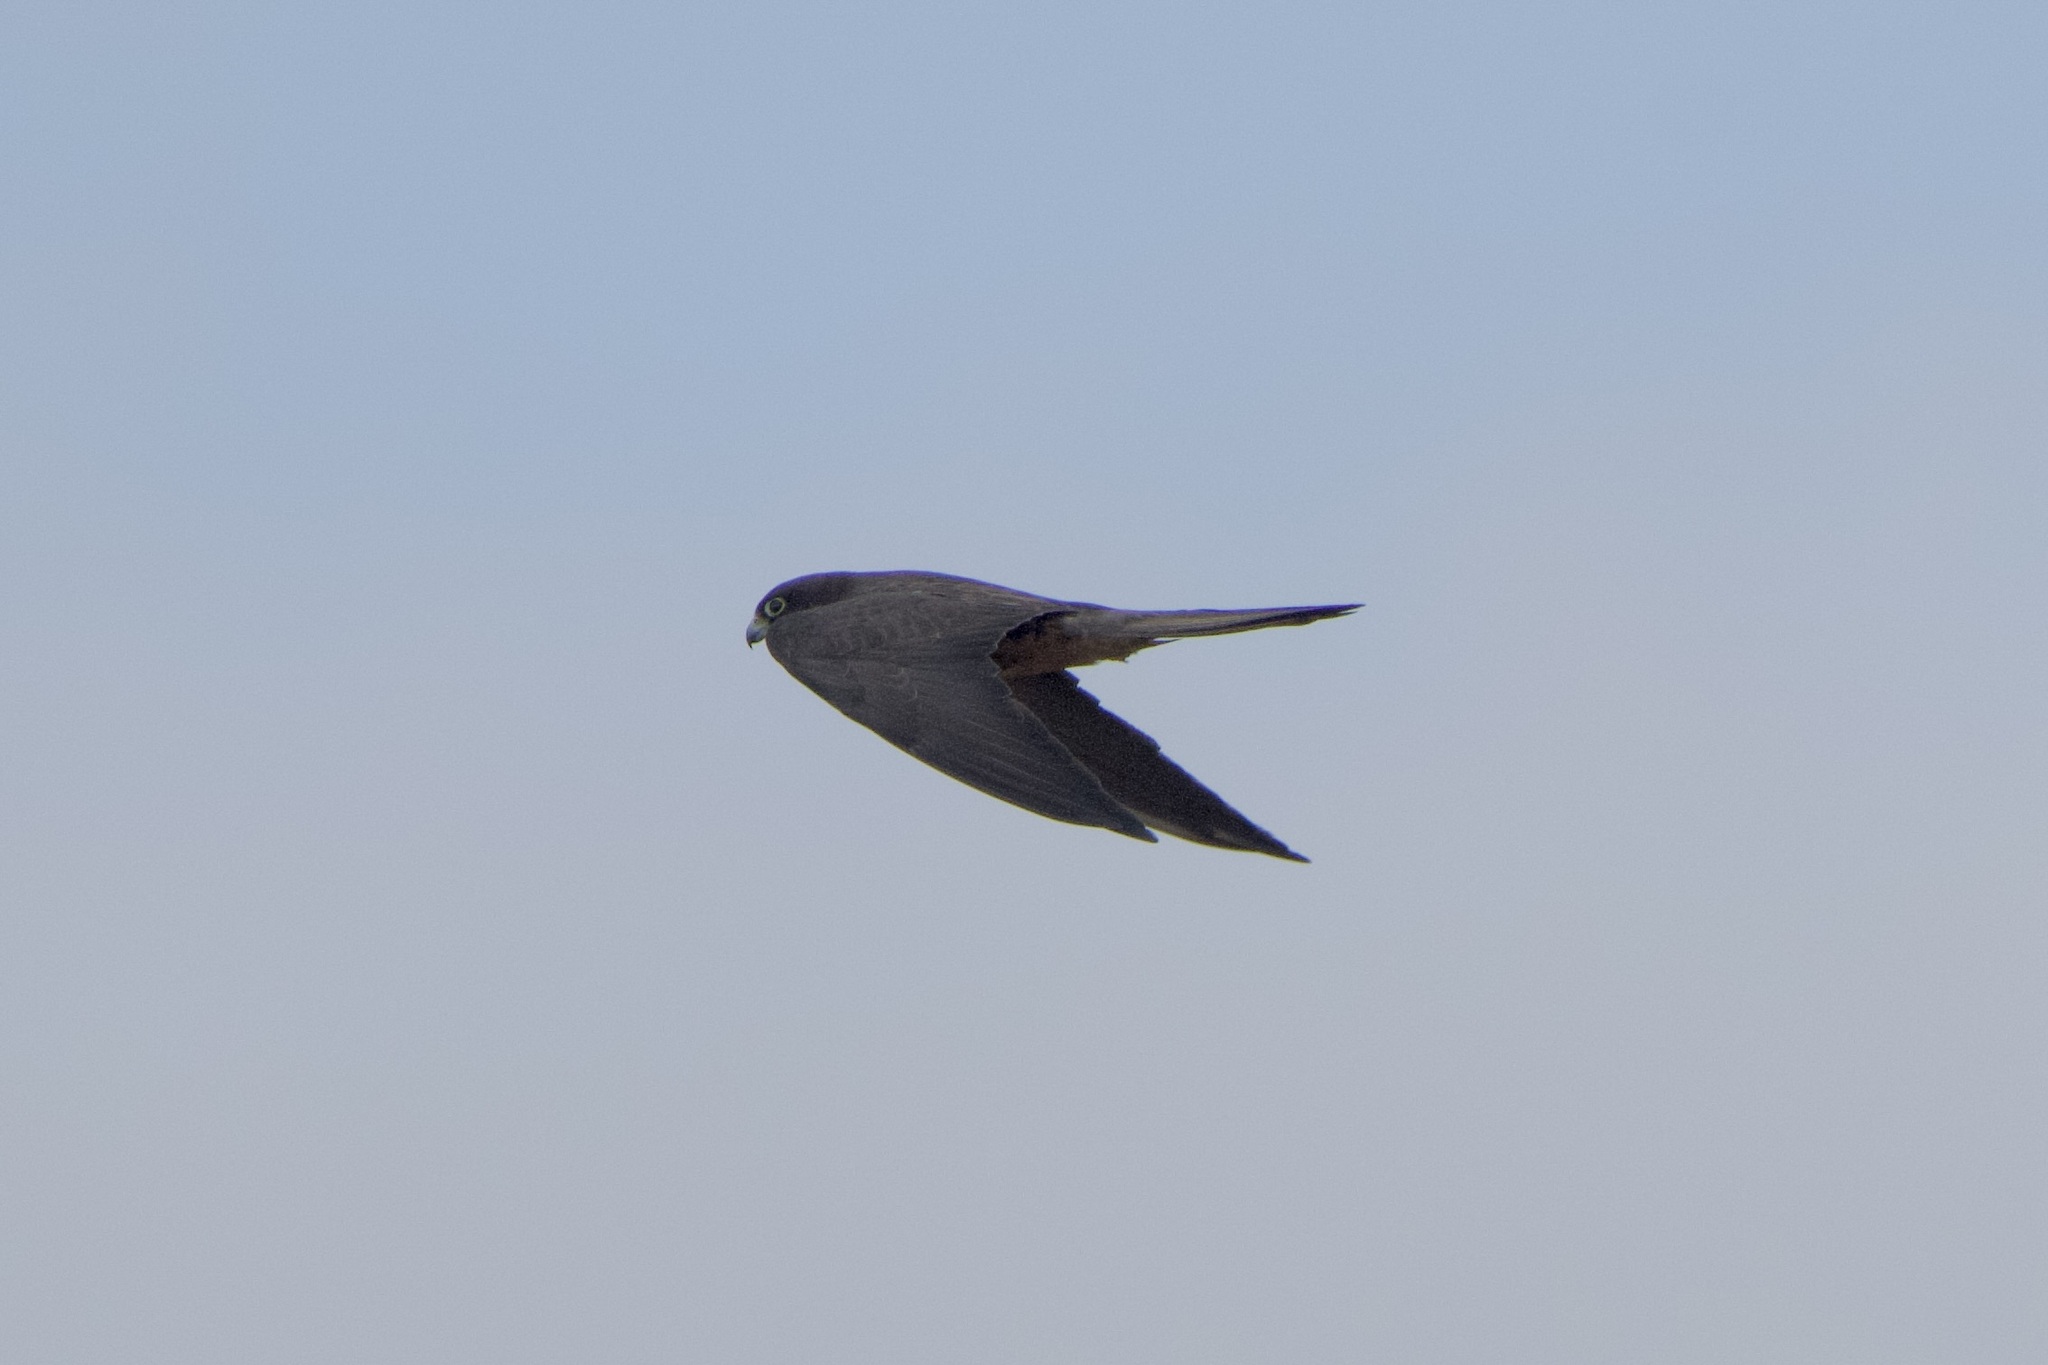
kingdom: Animalia
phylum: Chordata
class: Aves
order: Falconiformes
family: Falconidae
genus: Falco
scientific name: Falco eleonorae
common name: Eleonora's falcon
